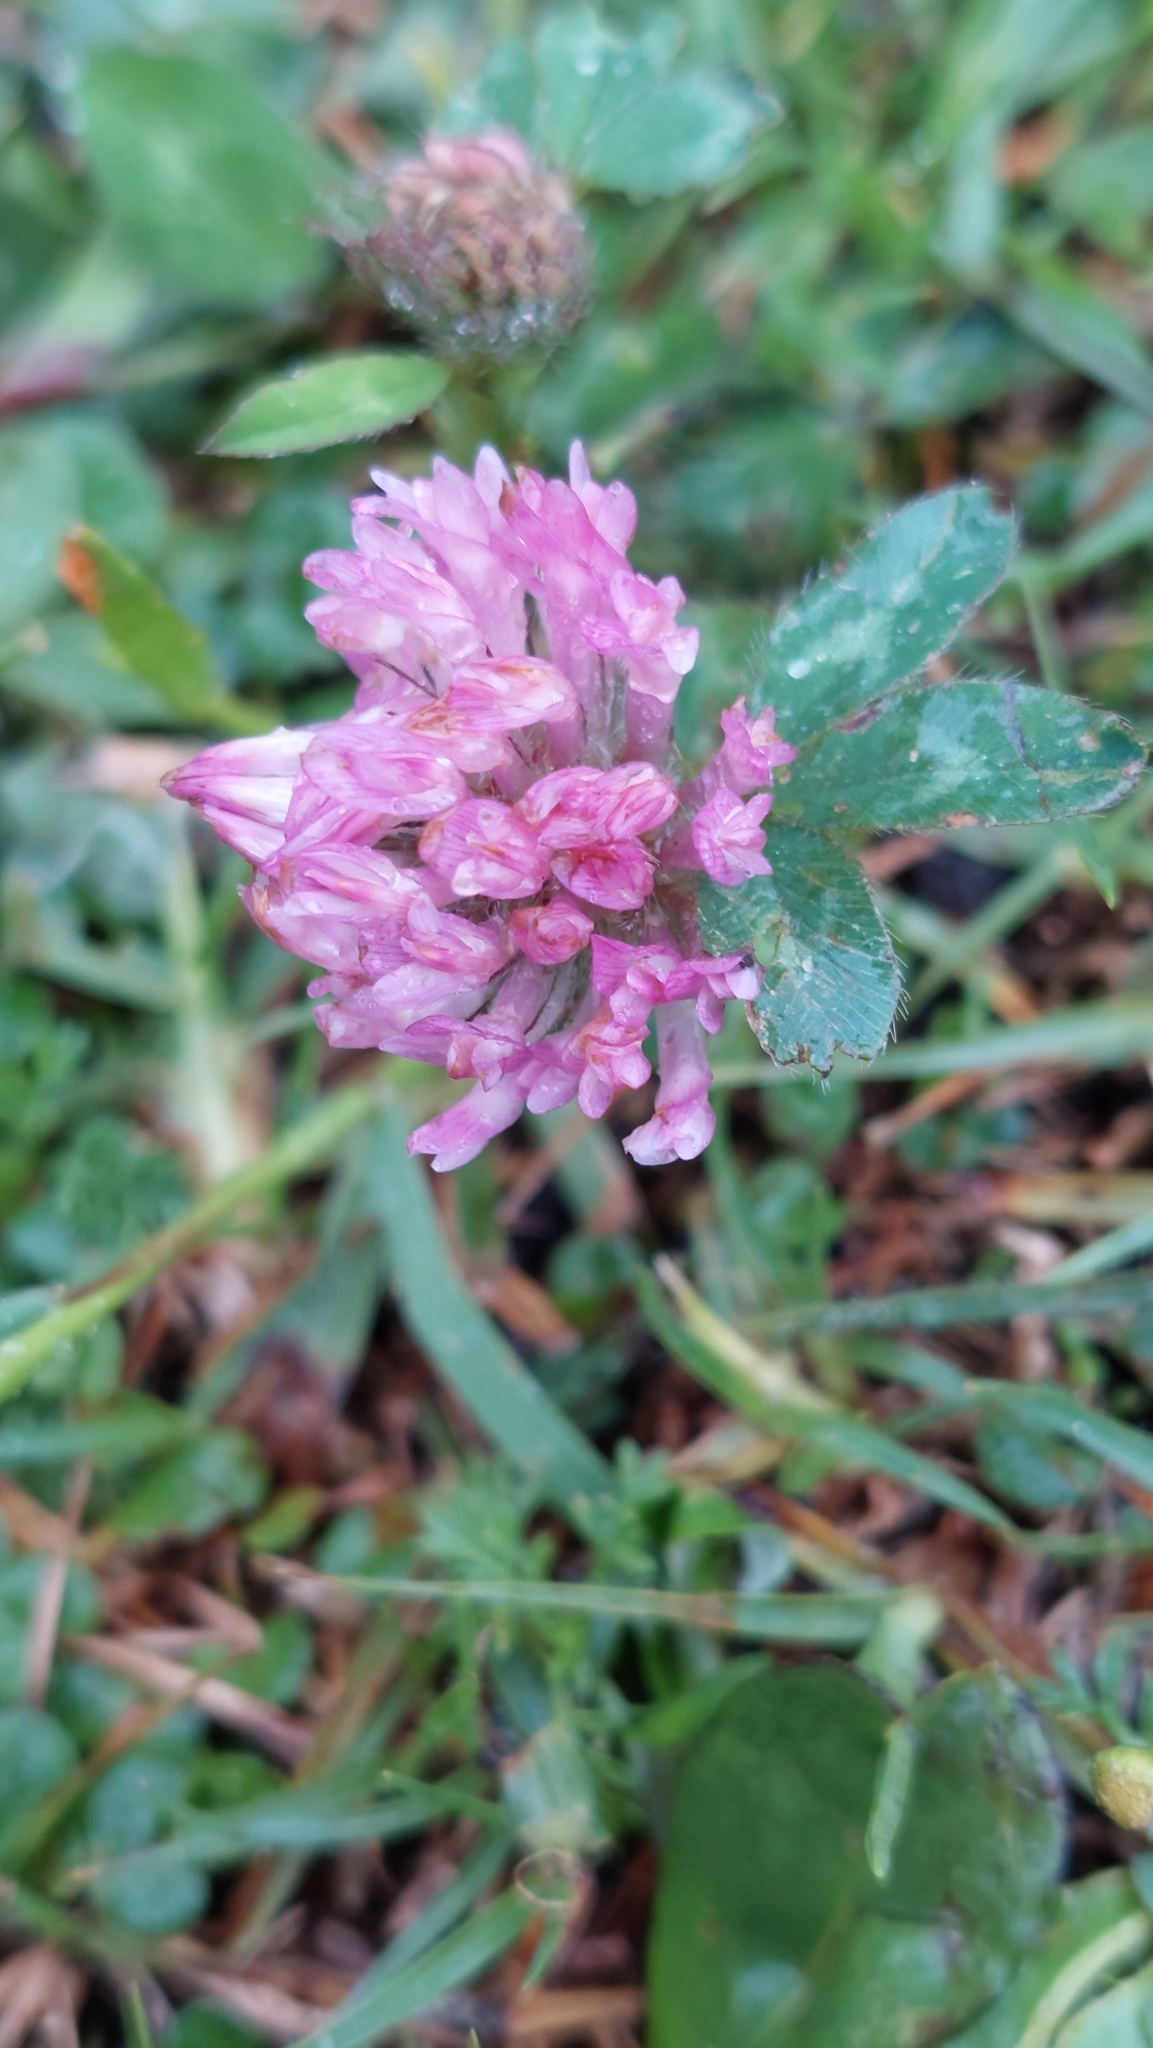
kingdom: Plantae
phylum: Tracheophyta
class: Magnoliopsida
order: Fabales
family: Fabaceae
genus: Trifolium
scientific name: Trifolium pratense
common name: Red clover
